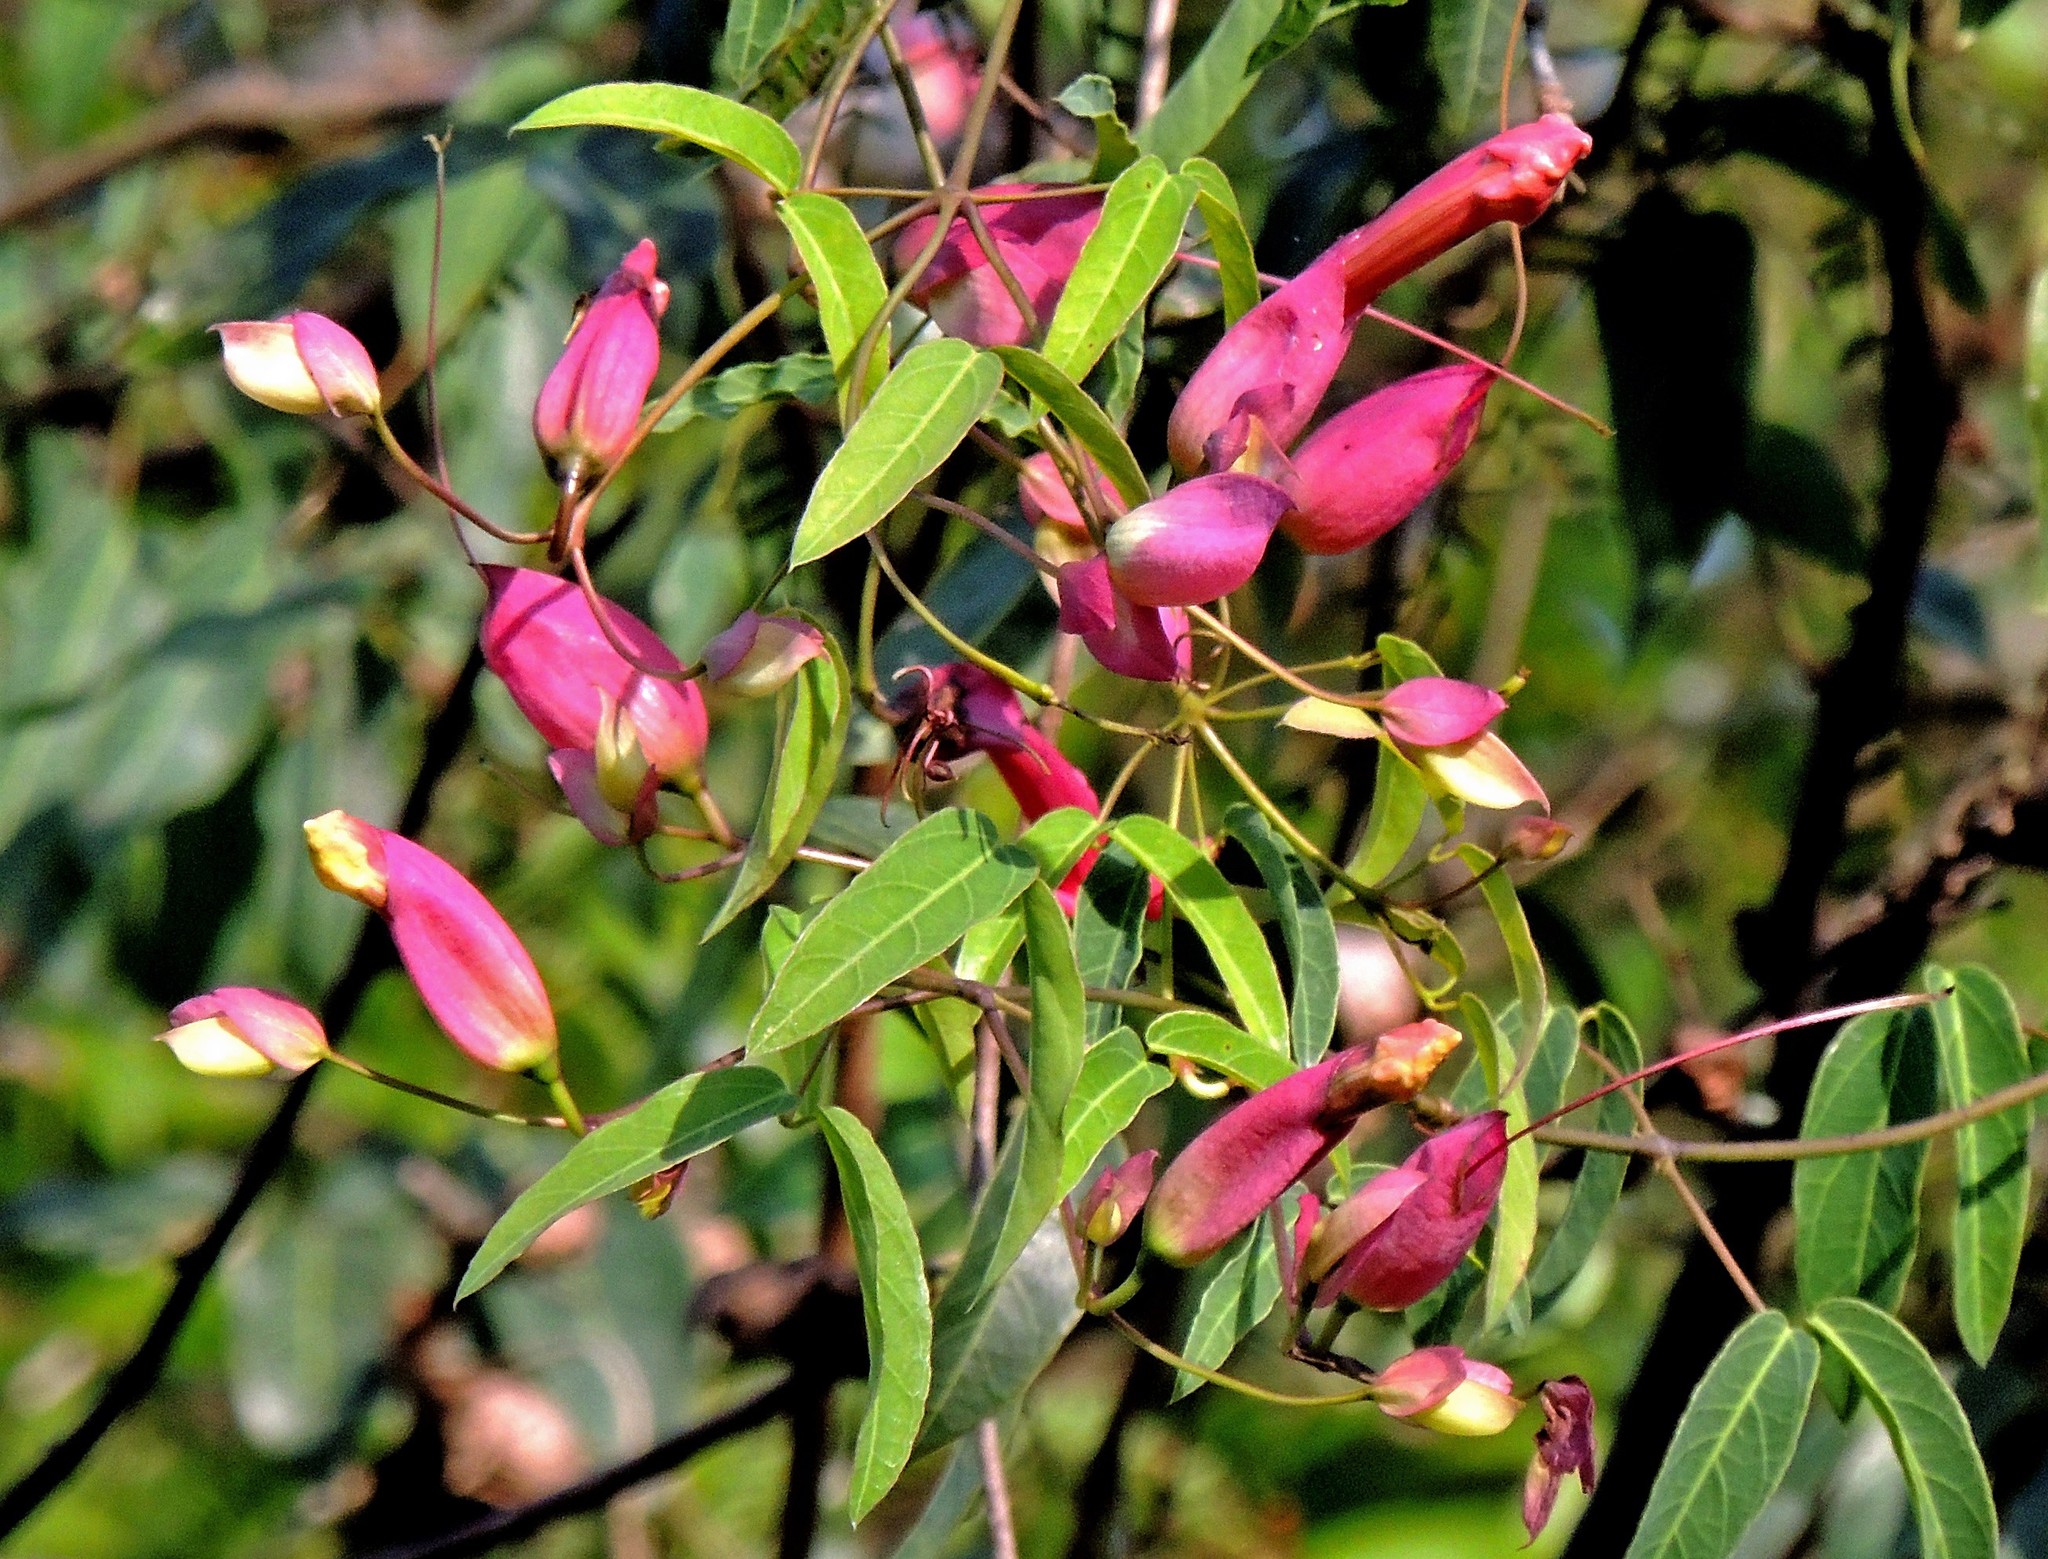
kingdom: Plantae
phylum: Tracheophyta
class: Magnoliopsida
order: Lamiales
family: Bignoniaceae
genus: Dolichandra
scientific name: Dolichandra cynanchoides
